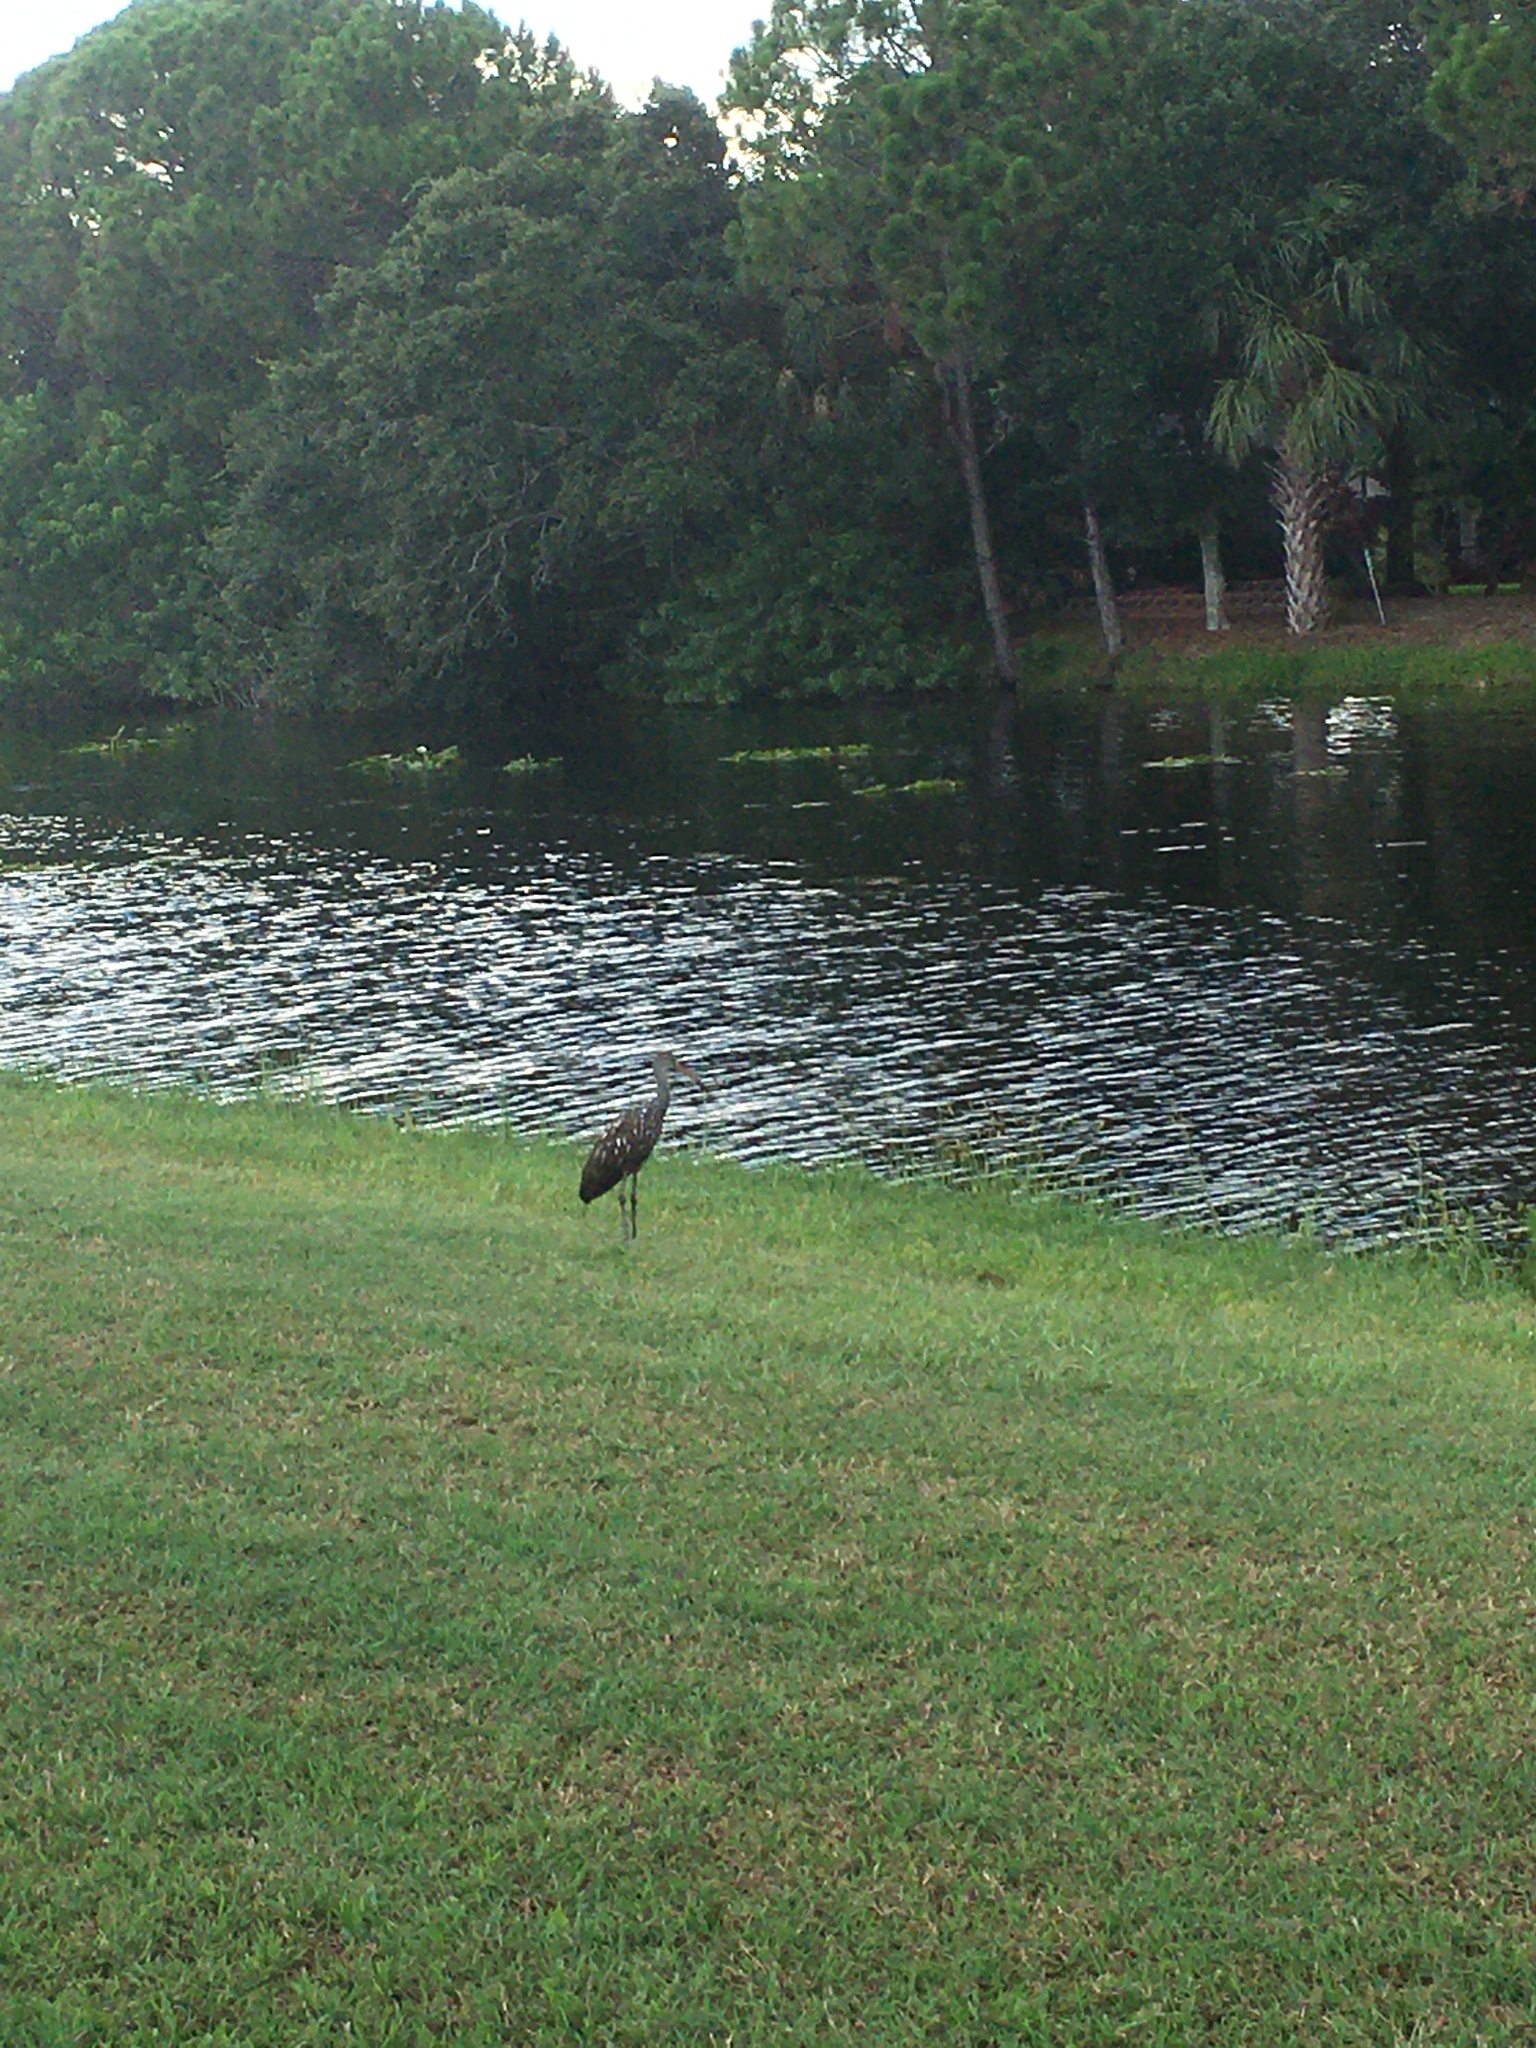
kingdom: Animalia
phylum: Chordata
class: Aves
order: Gruiformes
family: Aramidae
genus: Aramus
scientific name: Aramus guarauna
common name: Limpkin
